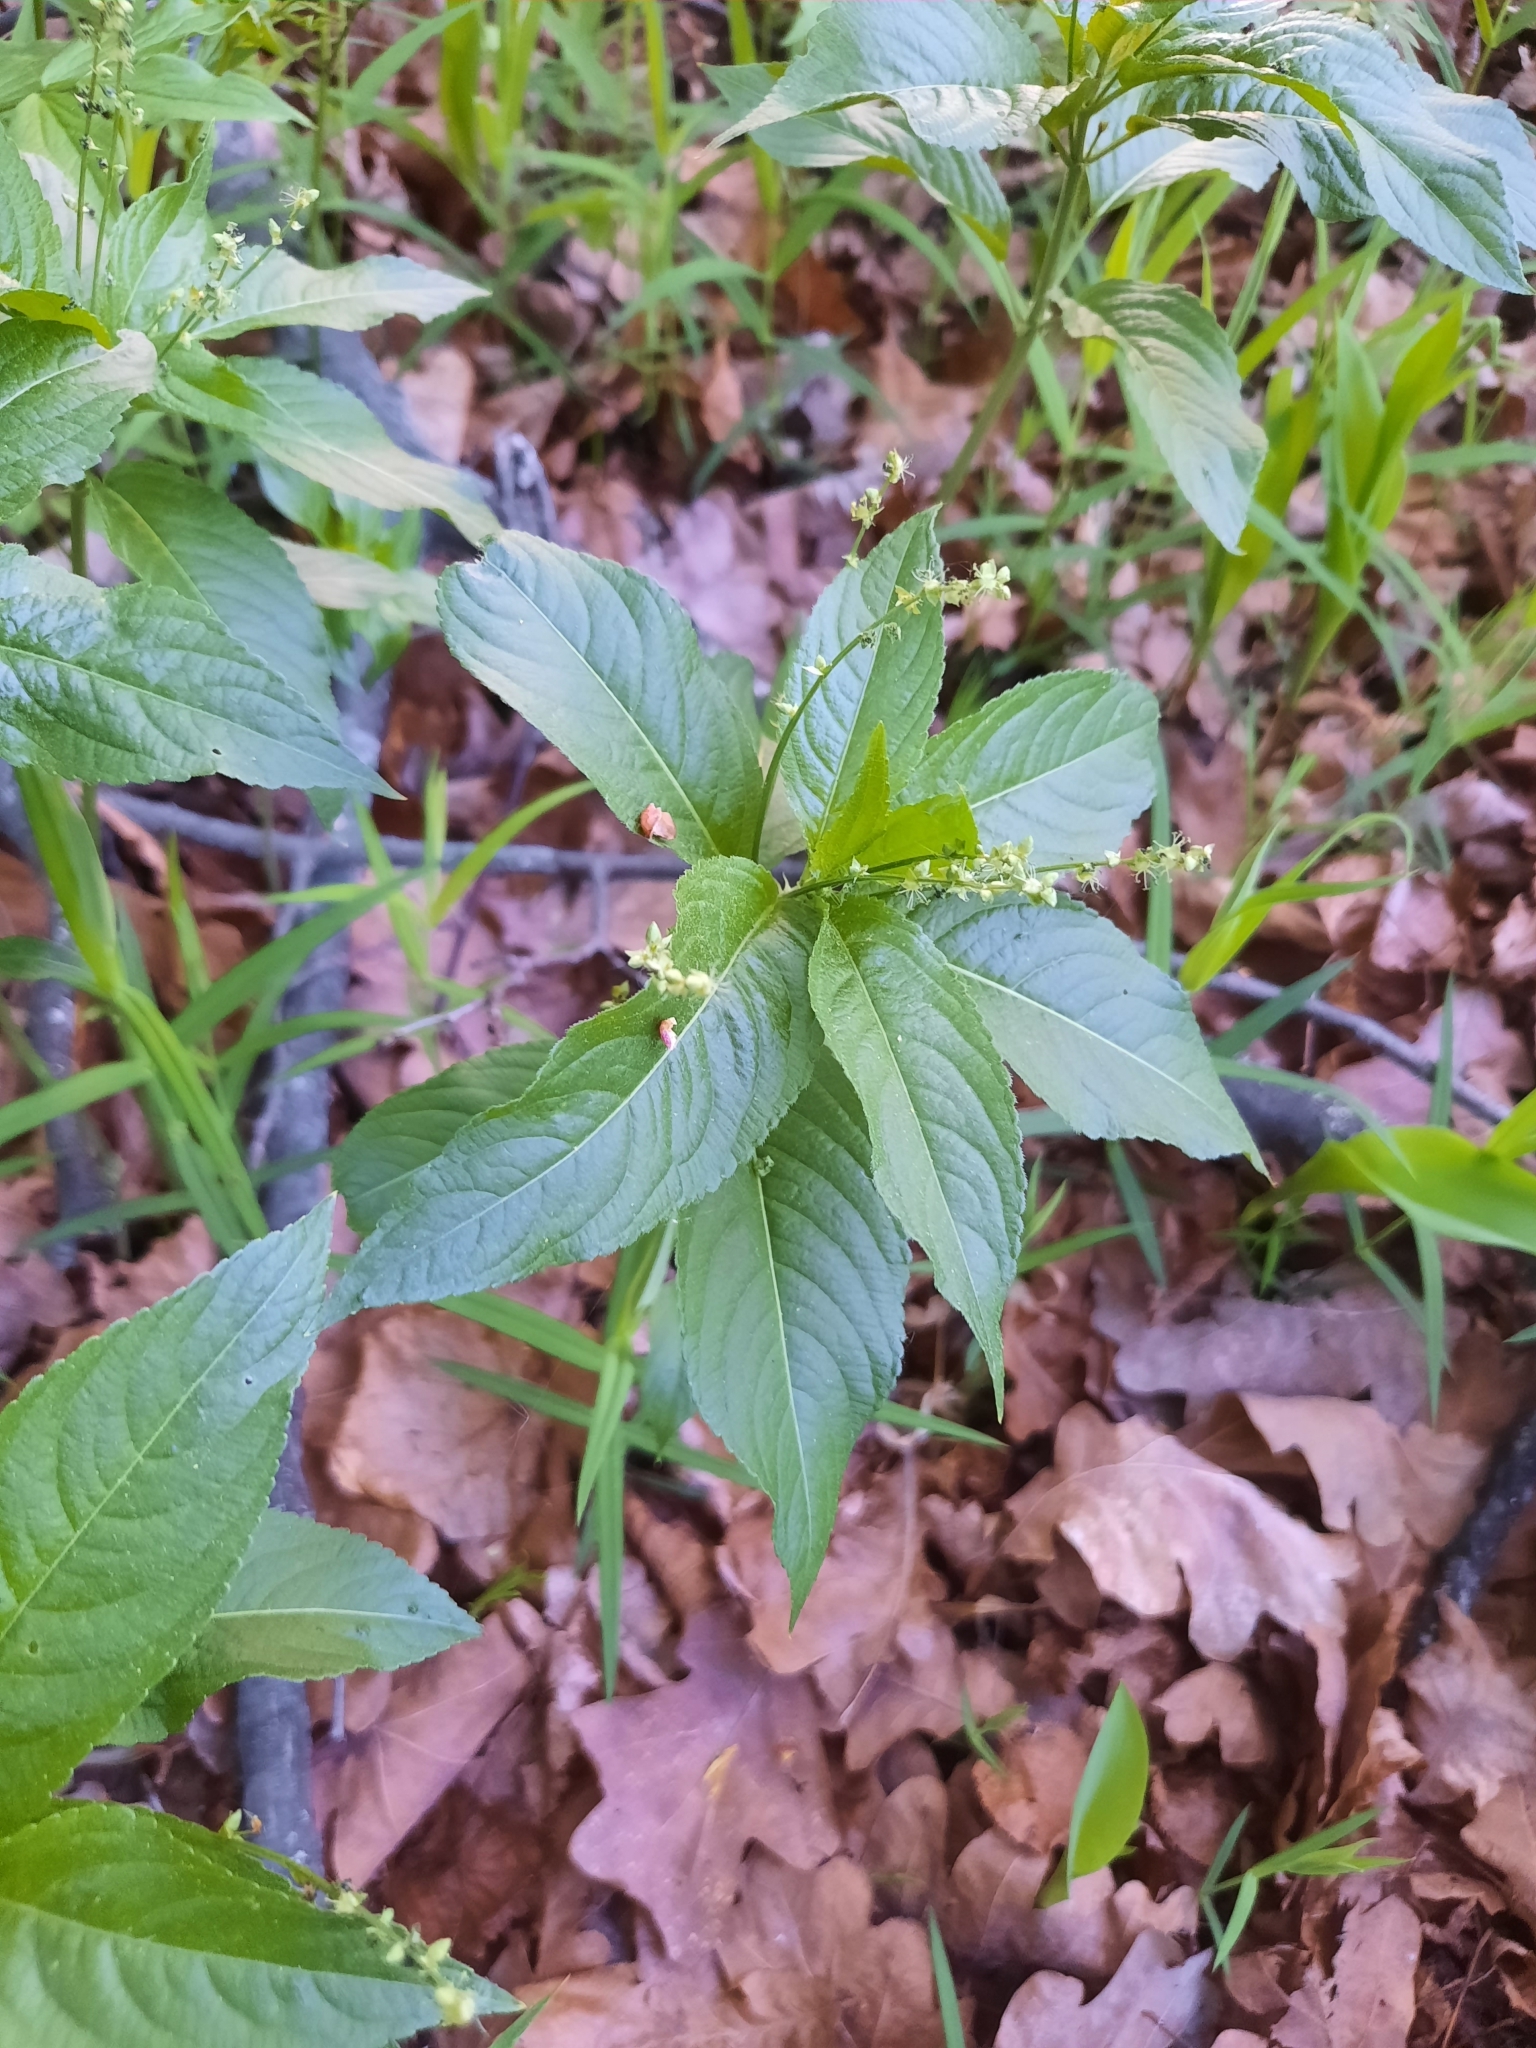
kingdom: Plantae
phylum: Tracheophyta
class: Magnoliopsida
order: Malpighiales
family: Euphorbiaceae
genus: Mercurialis
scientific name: Mercurialis perennis
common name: Dog mercury
